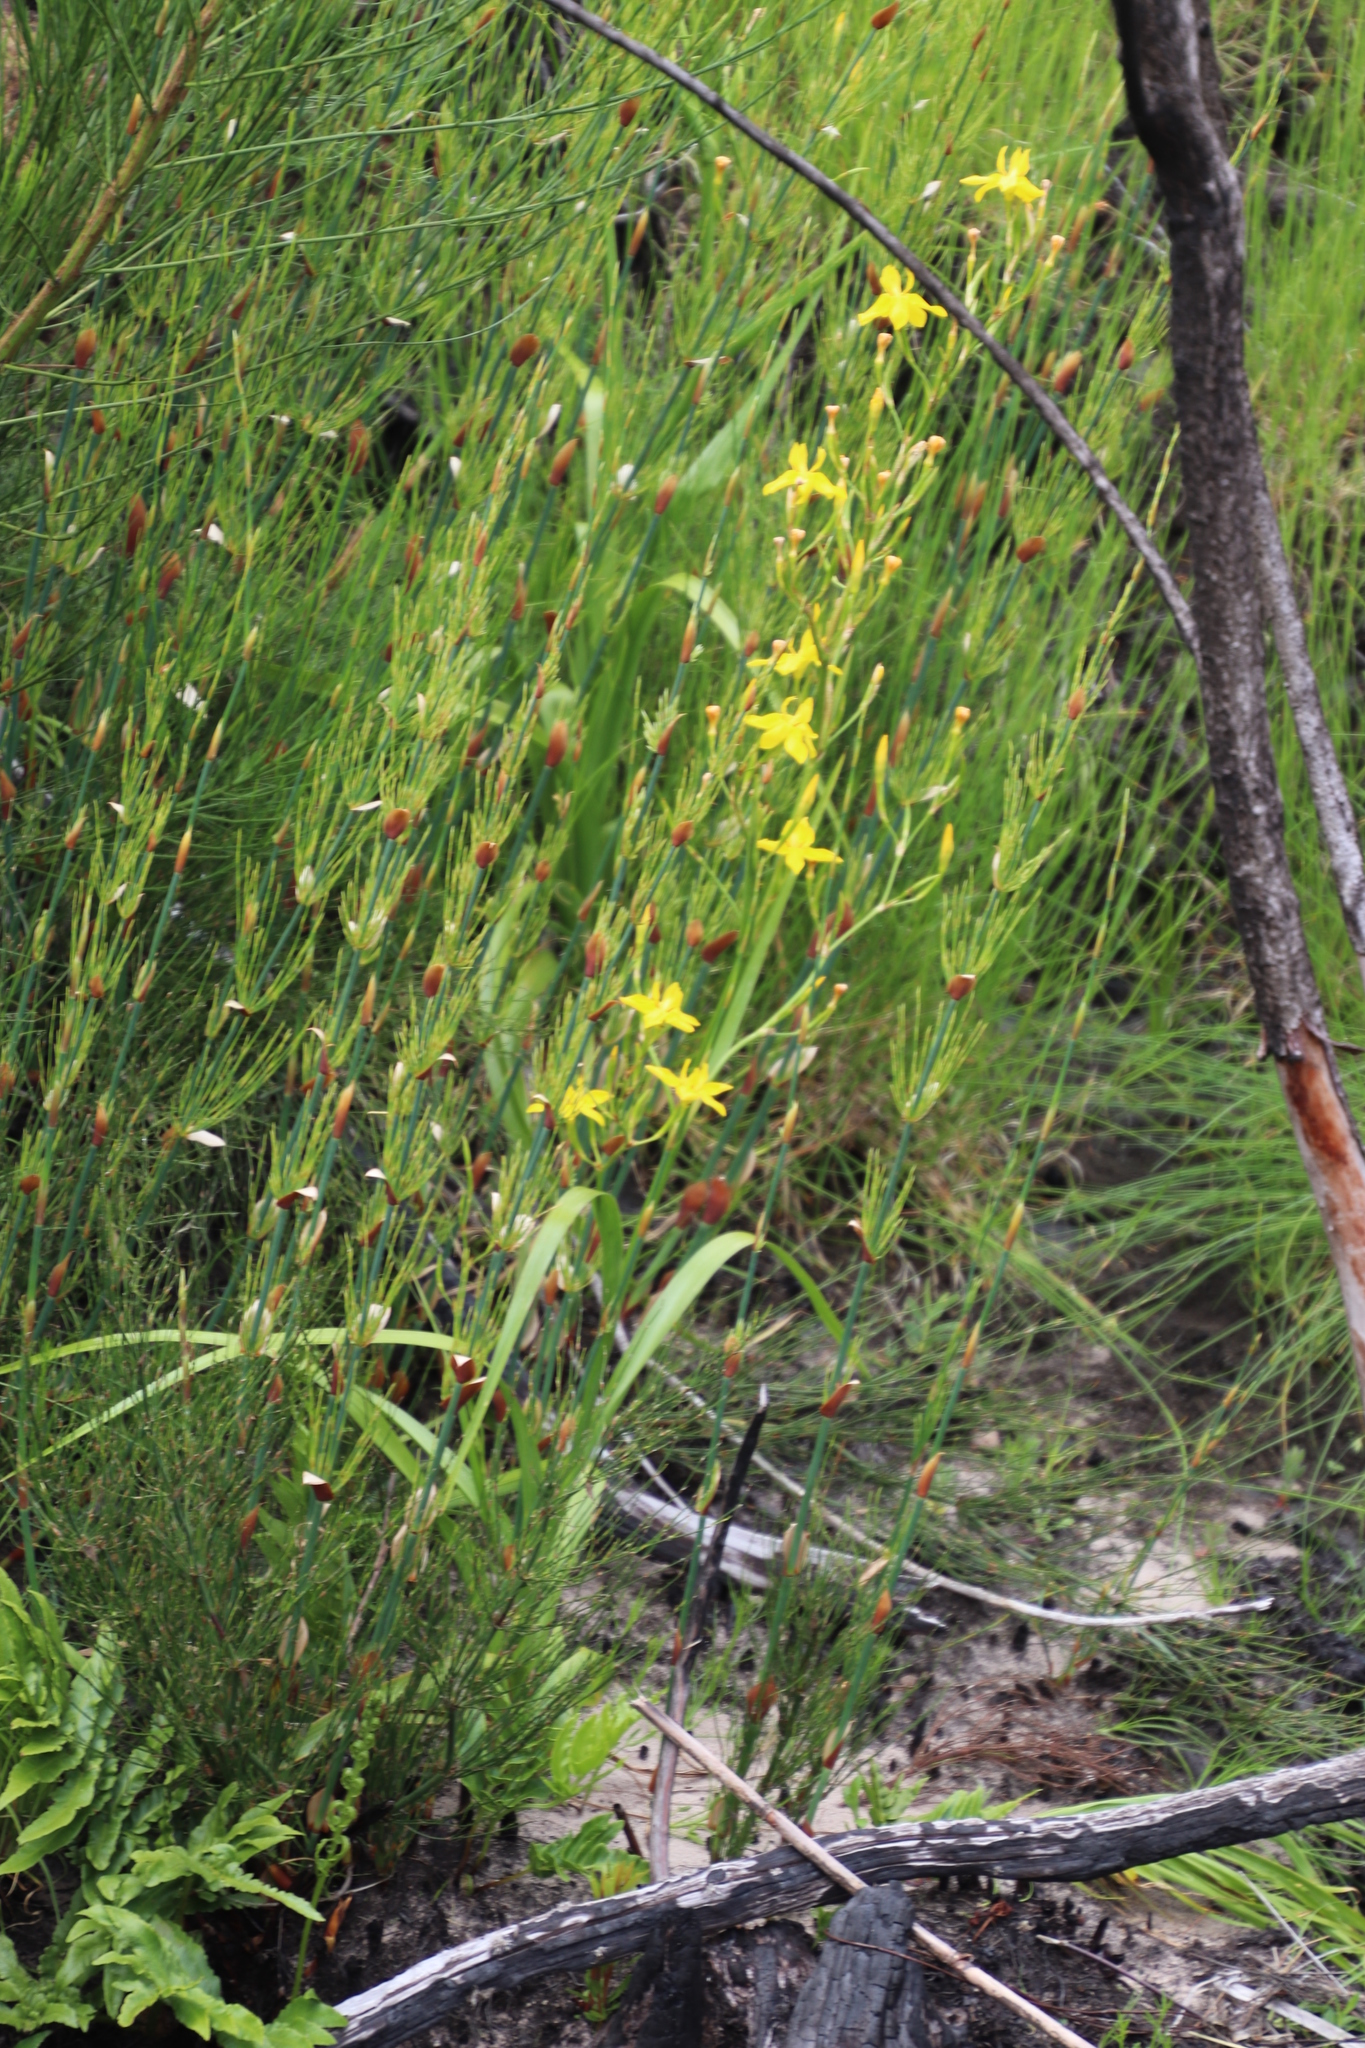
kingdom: Plantae
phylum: Tracheophyta
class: Liliopsida
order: Asparagales
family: Iridaceae
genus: Moraea
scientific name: Moraea ramosissima
